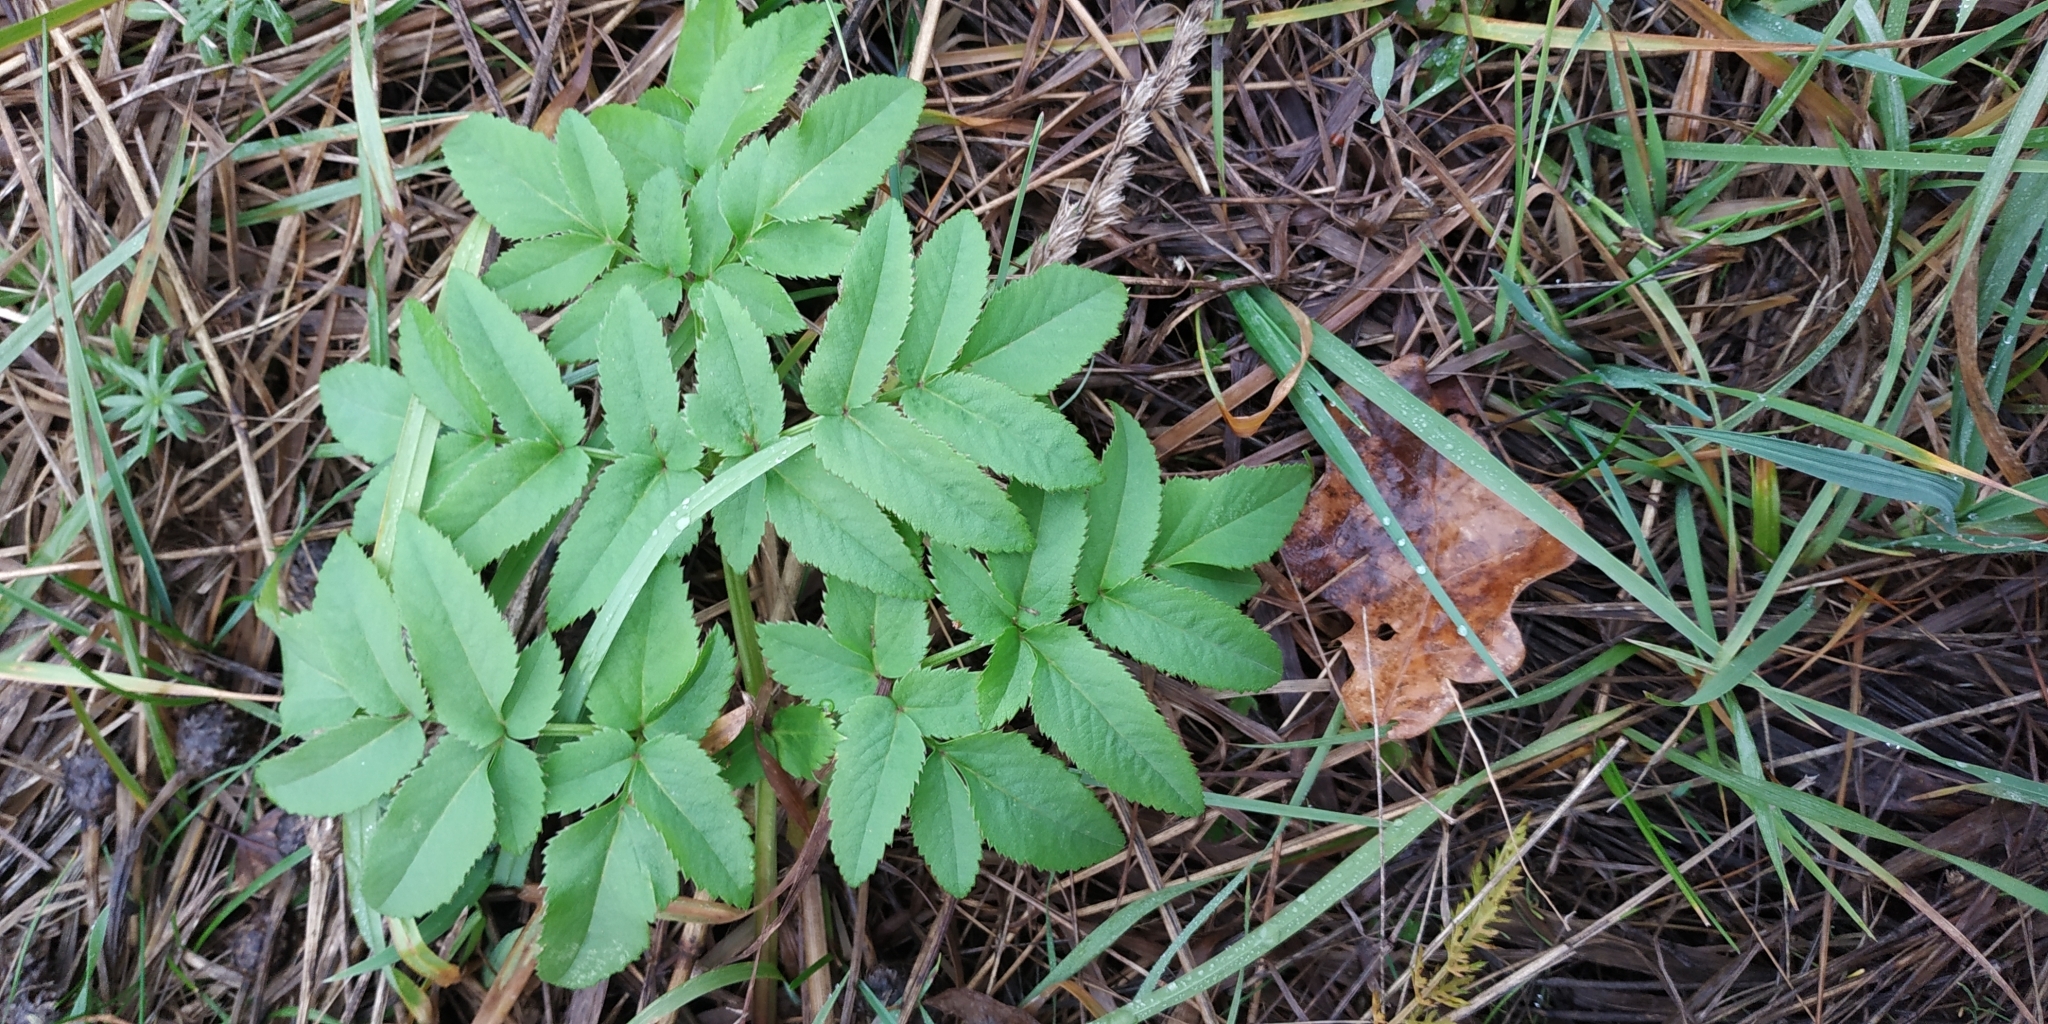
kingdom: Plantae
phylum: Tracheophyta
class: Magnoliopsida
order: Apiales
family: Apiaceae
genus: Angelica
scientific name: Angelica sylvestris
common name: Wild angelica
